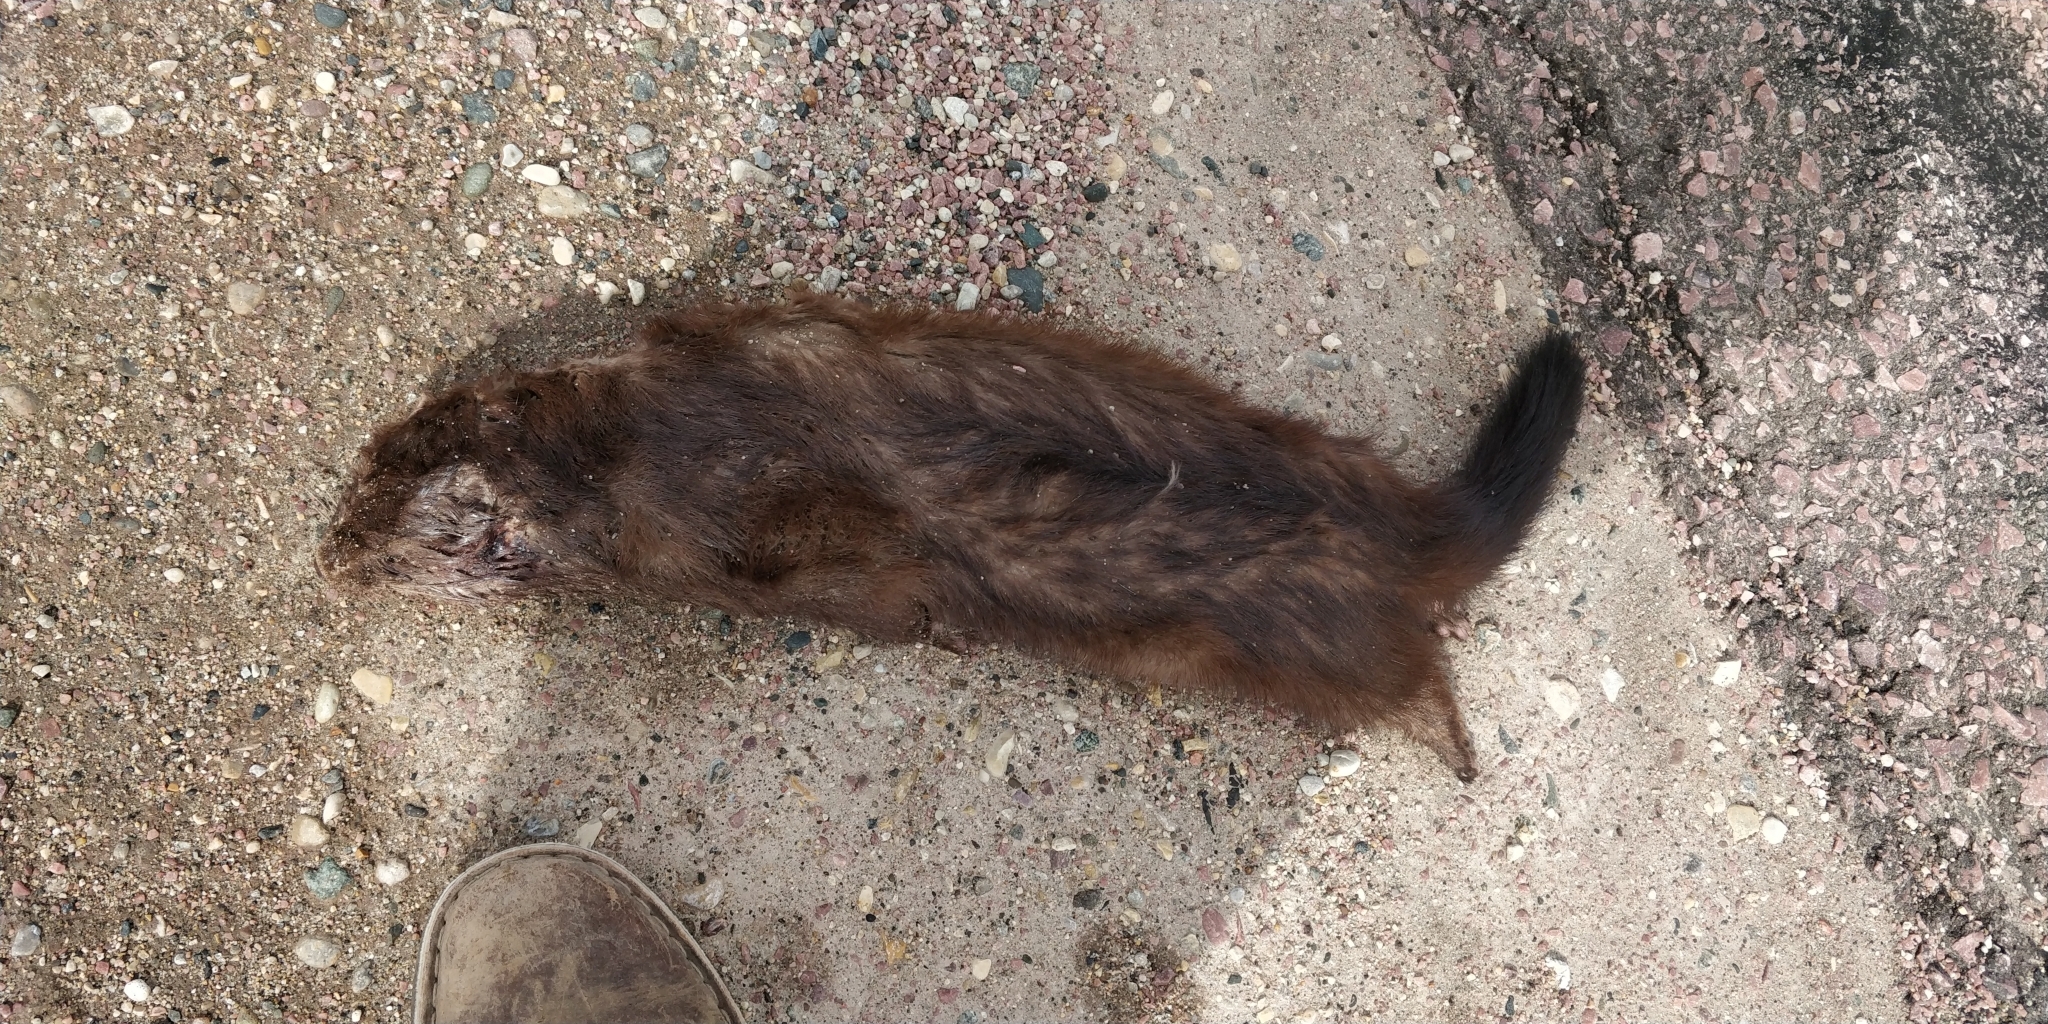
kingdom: Animalia
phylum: Chordata
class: Mammalia
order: Carnivora
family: Mustelidae
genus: Mustela
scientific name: Mustela
